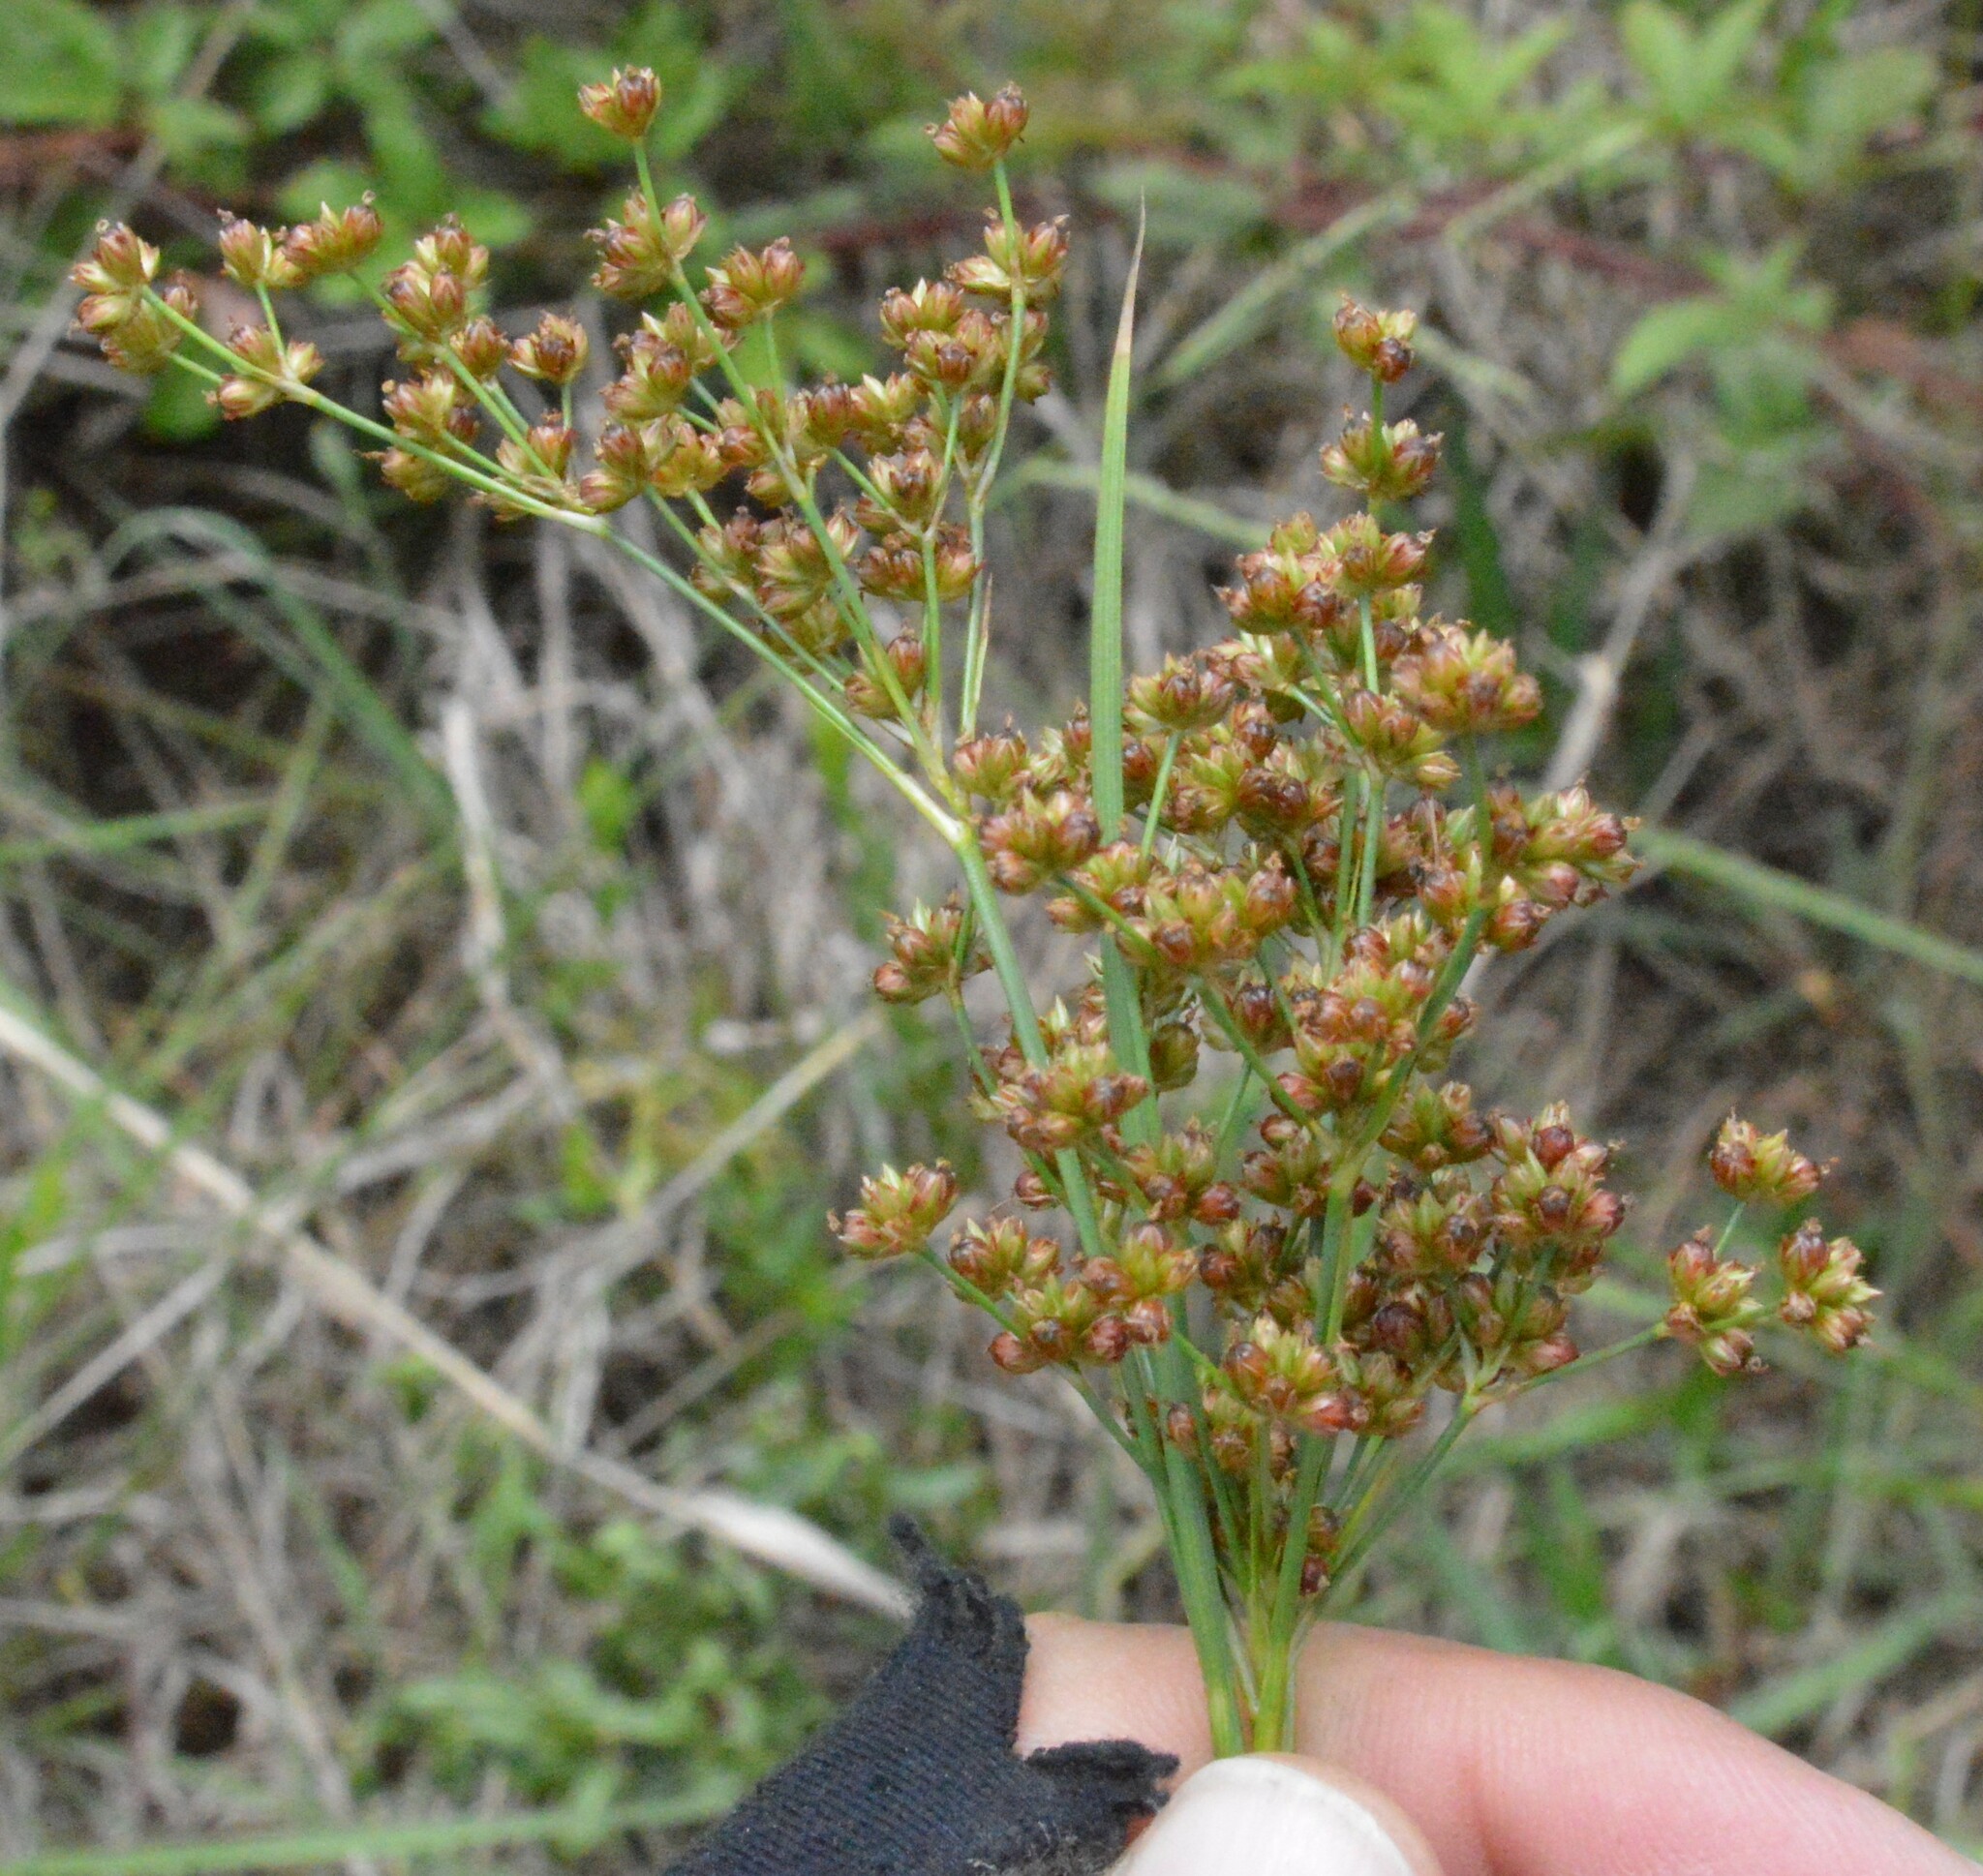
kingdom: Plantae
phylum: Tracheophyta
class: Liliopsida
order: Poales
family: Juncaceae
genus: Juncus
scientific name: Juncus marginatus
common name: Grass-leaf rush
